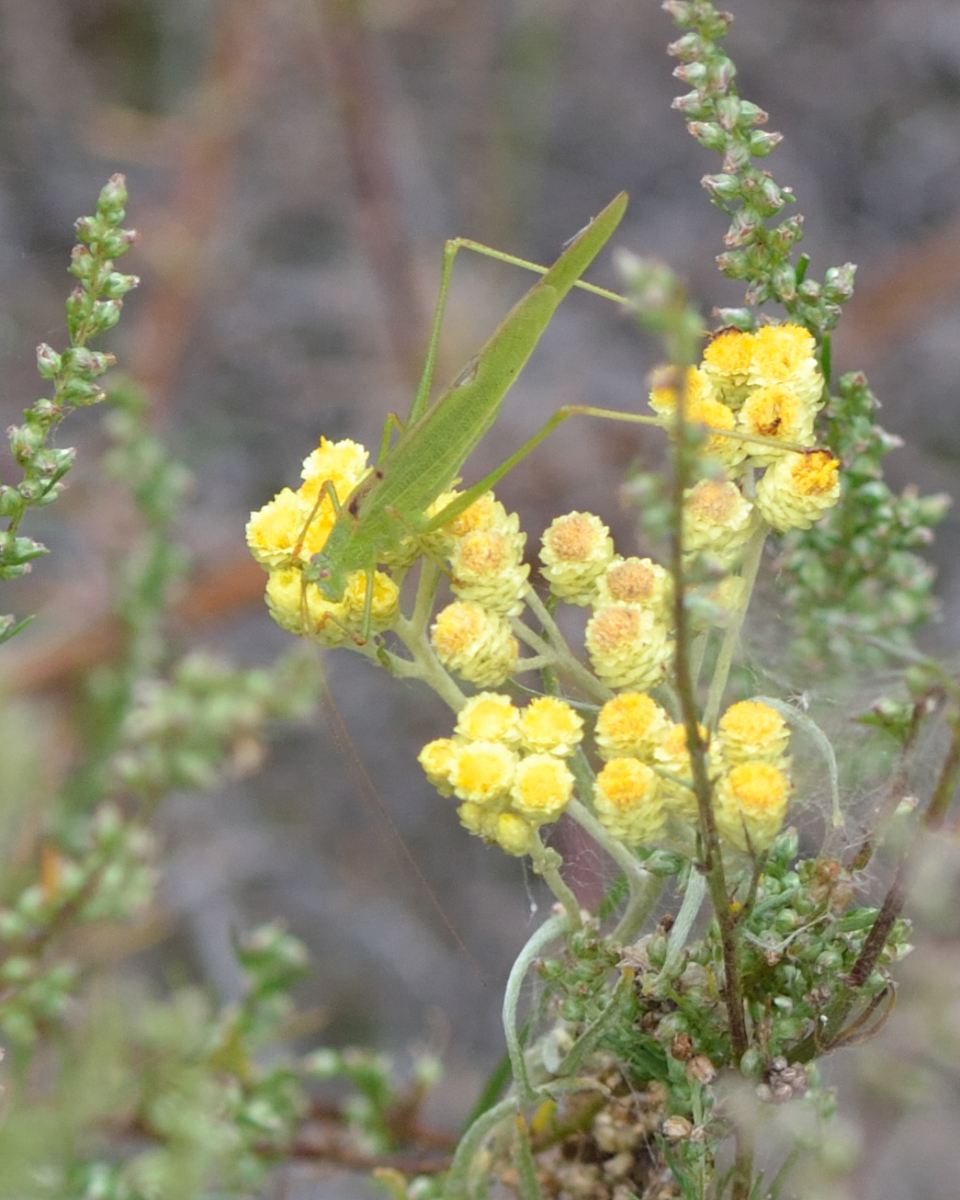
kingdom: Animalia
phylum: Arthropoda
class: Insecta
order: Orthoptera
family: Tettigoniidae
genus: Phaneroptera
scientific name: Phaneroptera falcata
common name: Sickle-bearing bush-cricket
